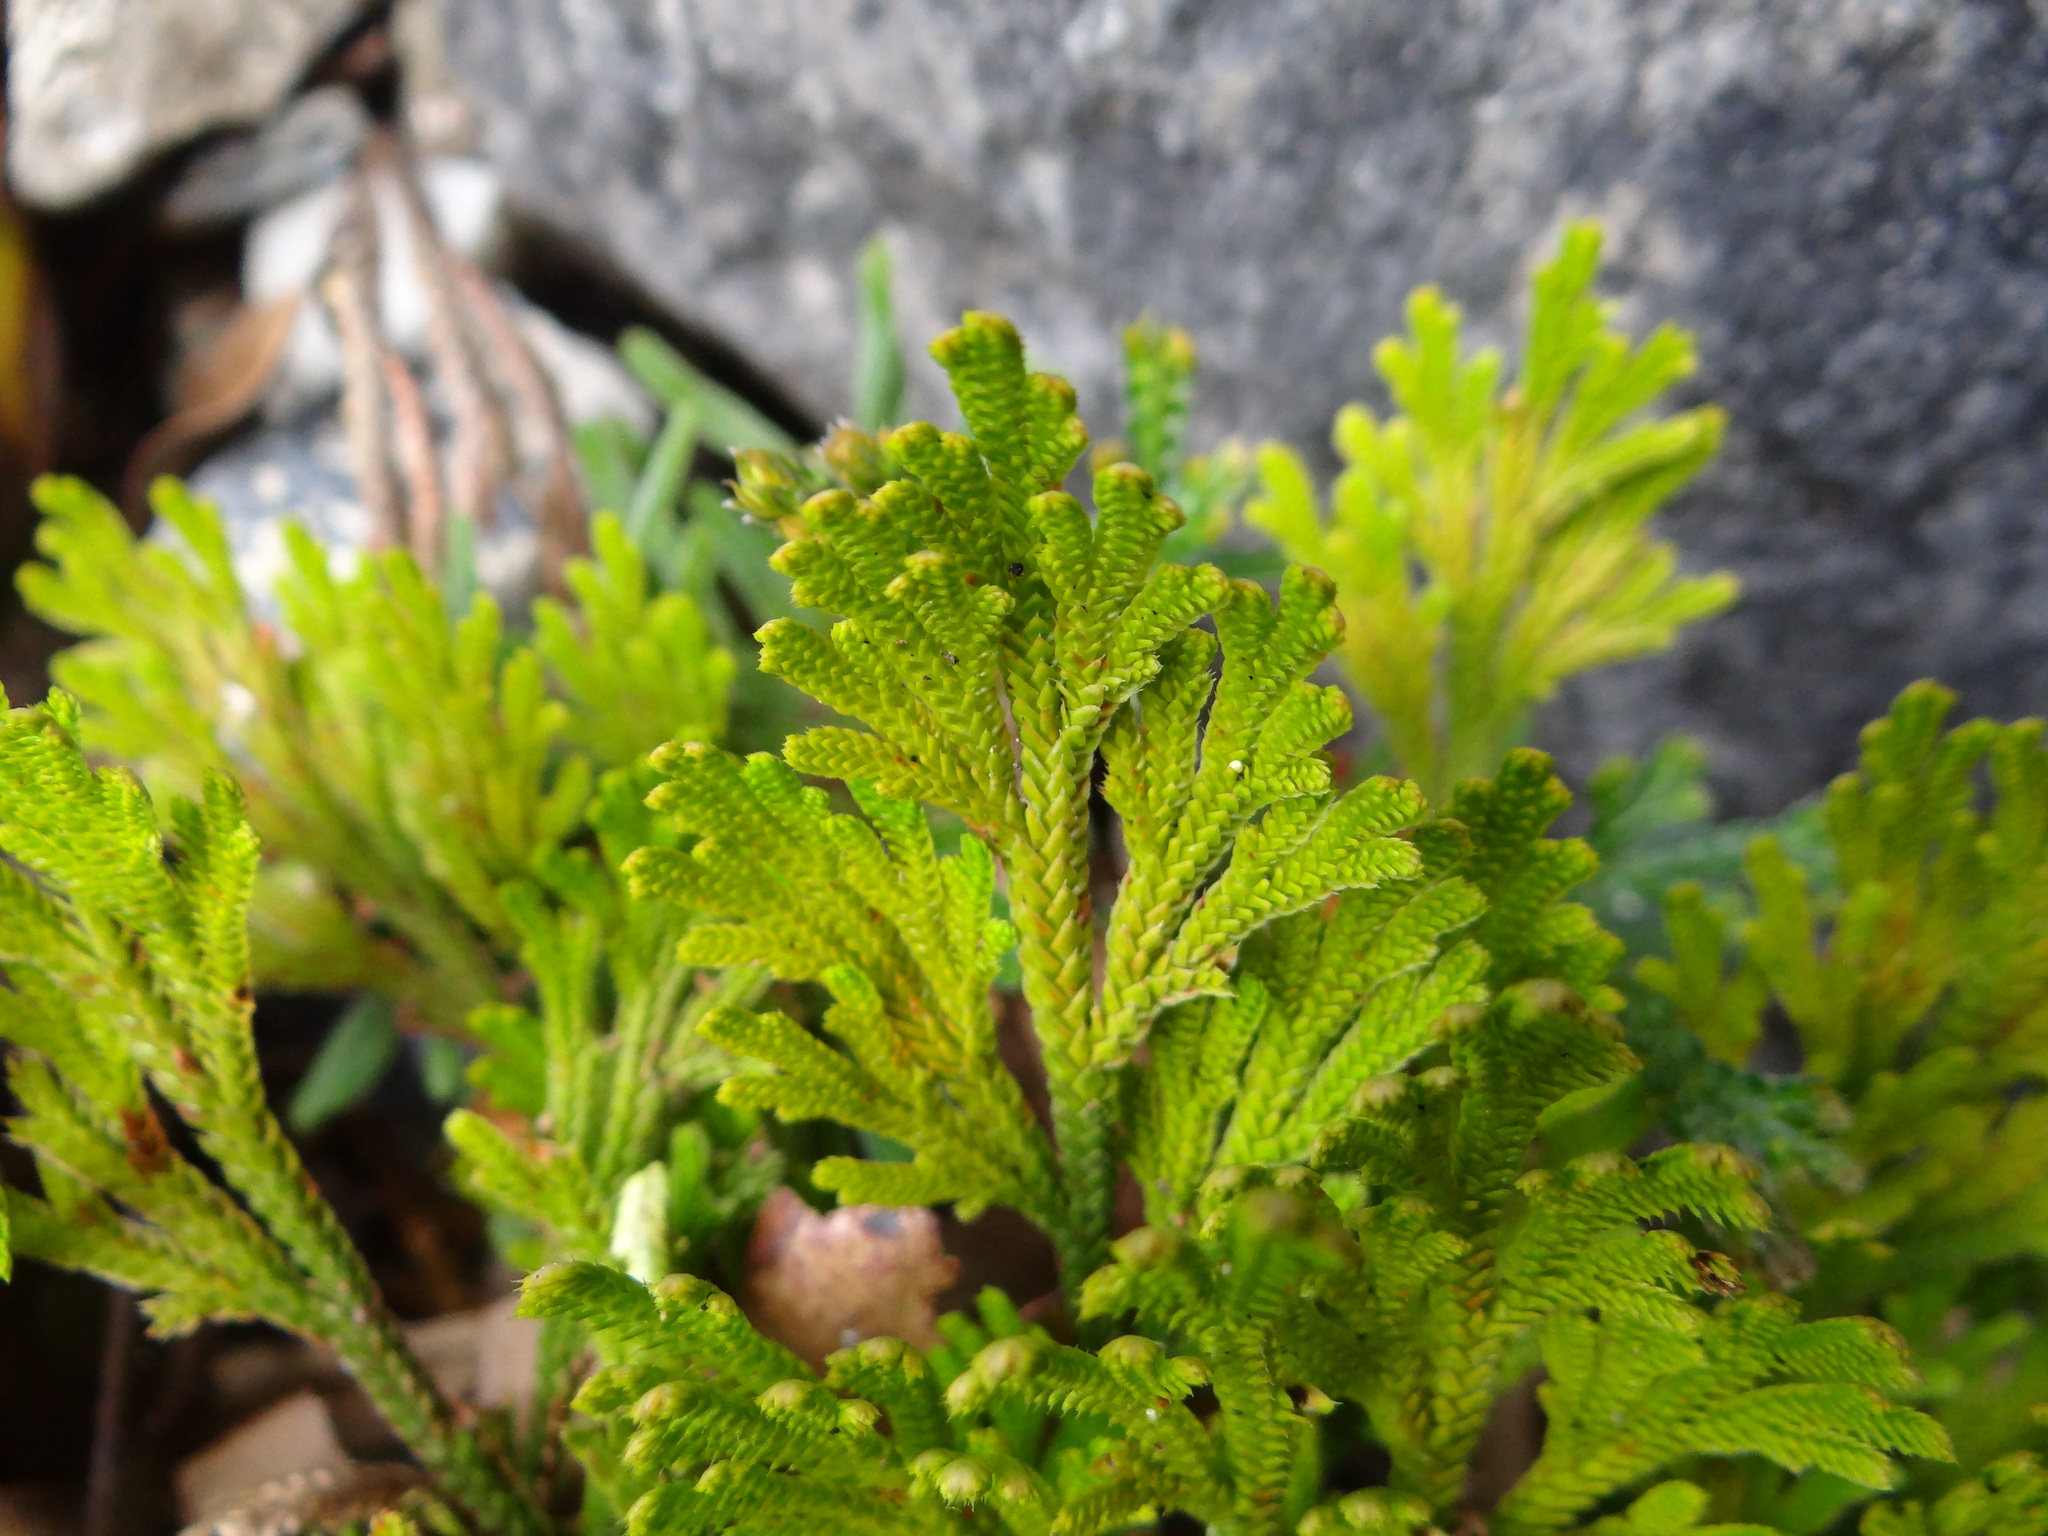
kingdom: Plantae
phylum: Tracheophyta
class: Lycopodiopsida
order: Selaginellales
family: Selaginellaceae
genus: Selaginella
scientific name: Selaginella tamariscina
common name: Little-club-moss
